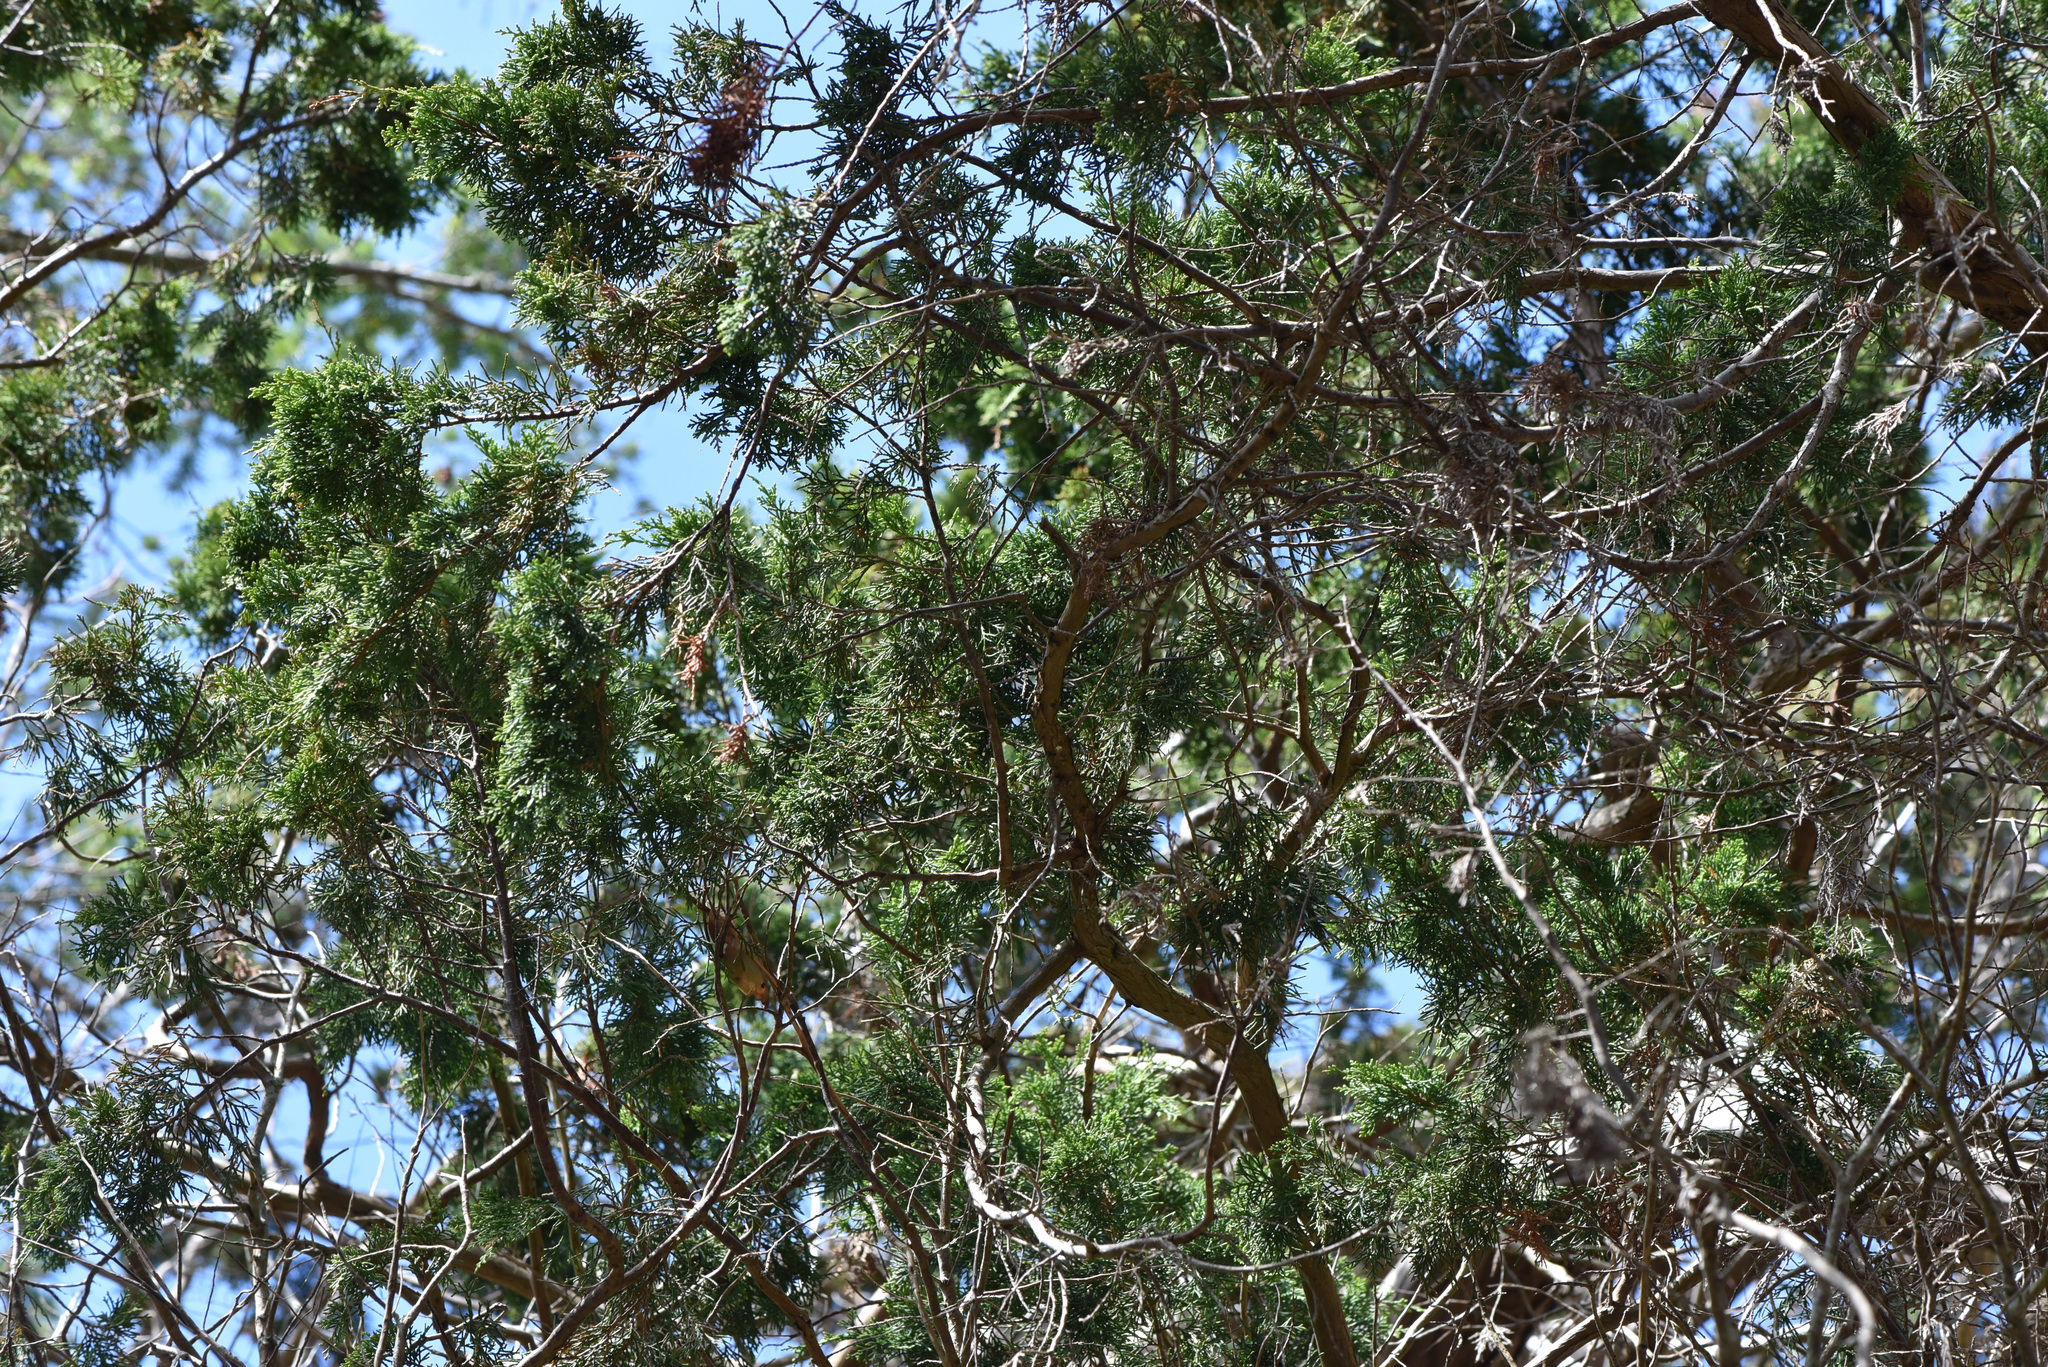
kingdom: Plantae
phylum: Tracheophyta
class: Pinopsida
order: Pinales
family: Cupressaceae
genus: Juniperus
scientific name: Juniperus scopulorum
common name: Rocky mountain juniper
